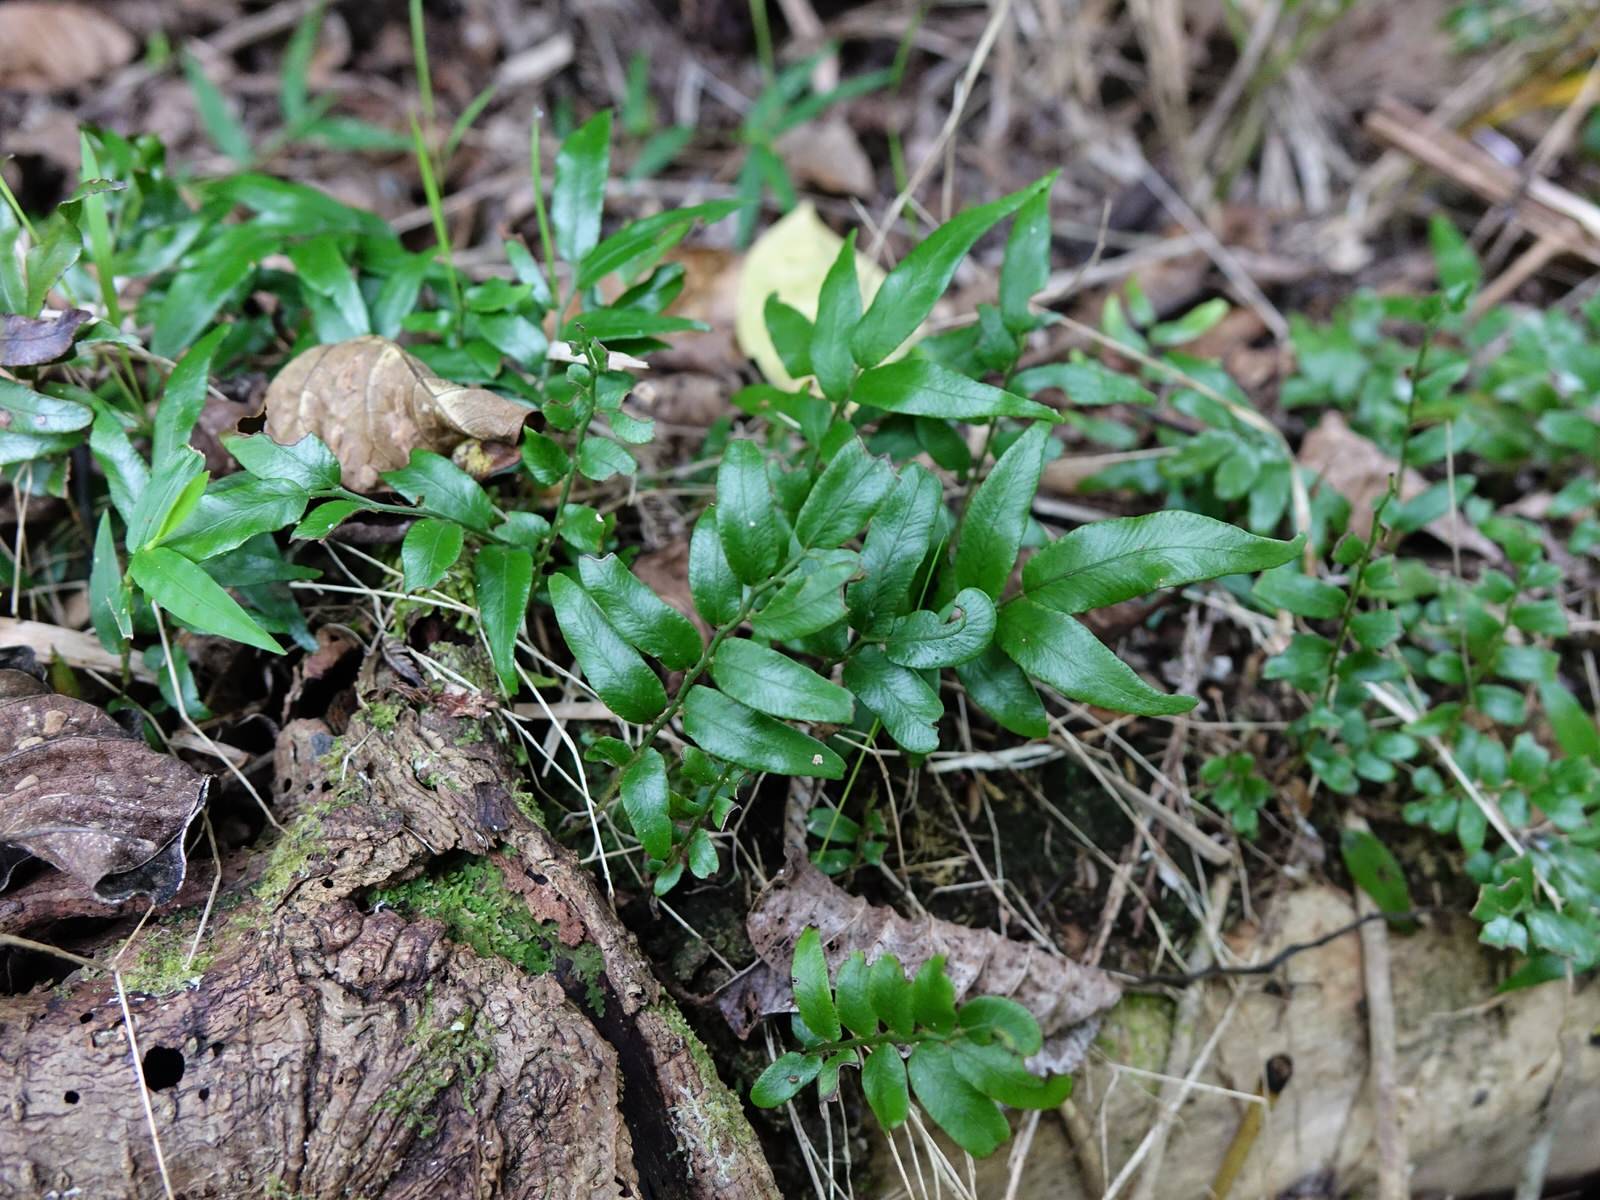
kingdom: Plantae
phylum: Tracheophyta
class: Polypodiopsida
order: Polypodiales
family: Tectariaceae
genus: Arthropteris
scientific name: Arthropteris tenella
